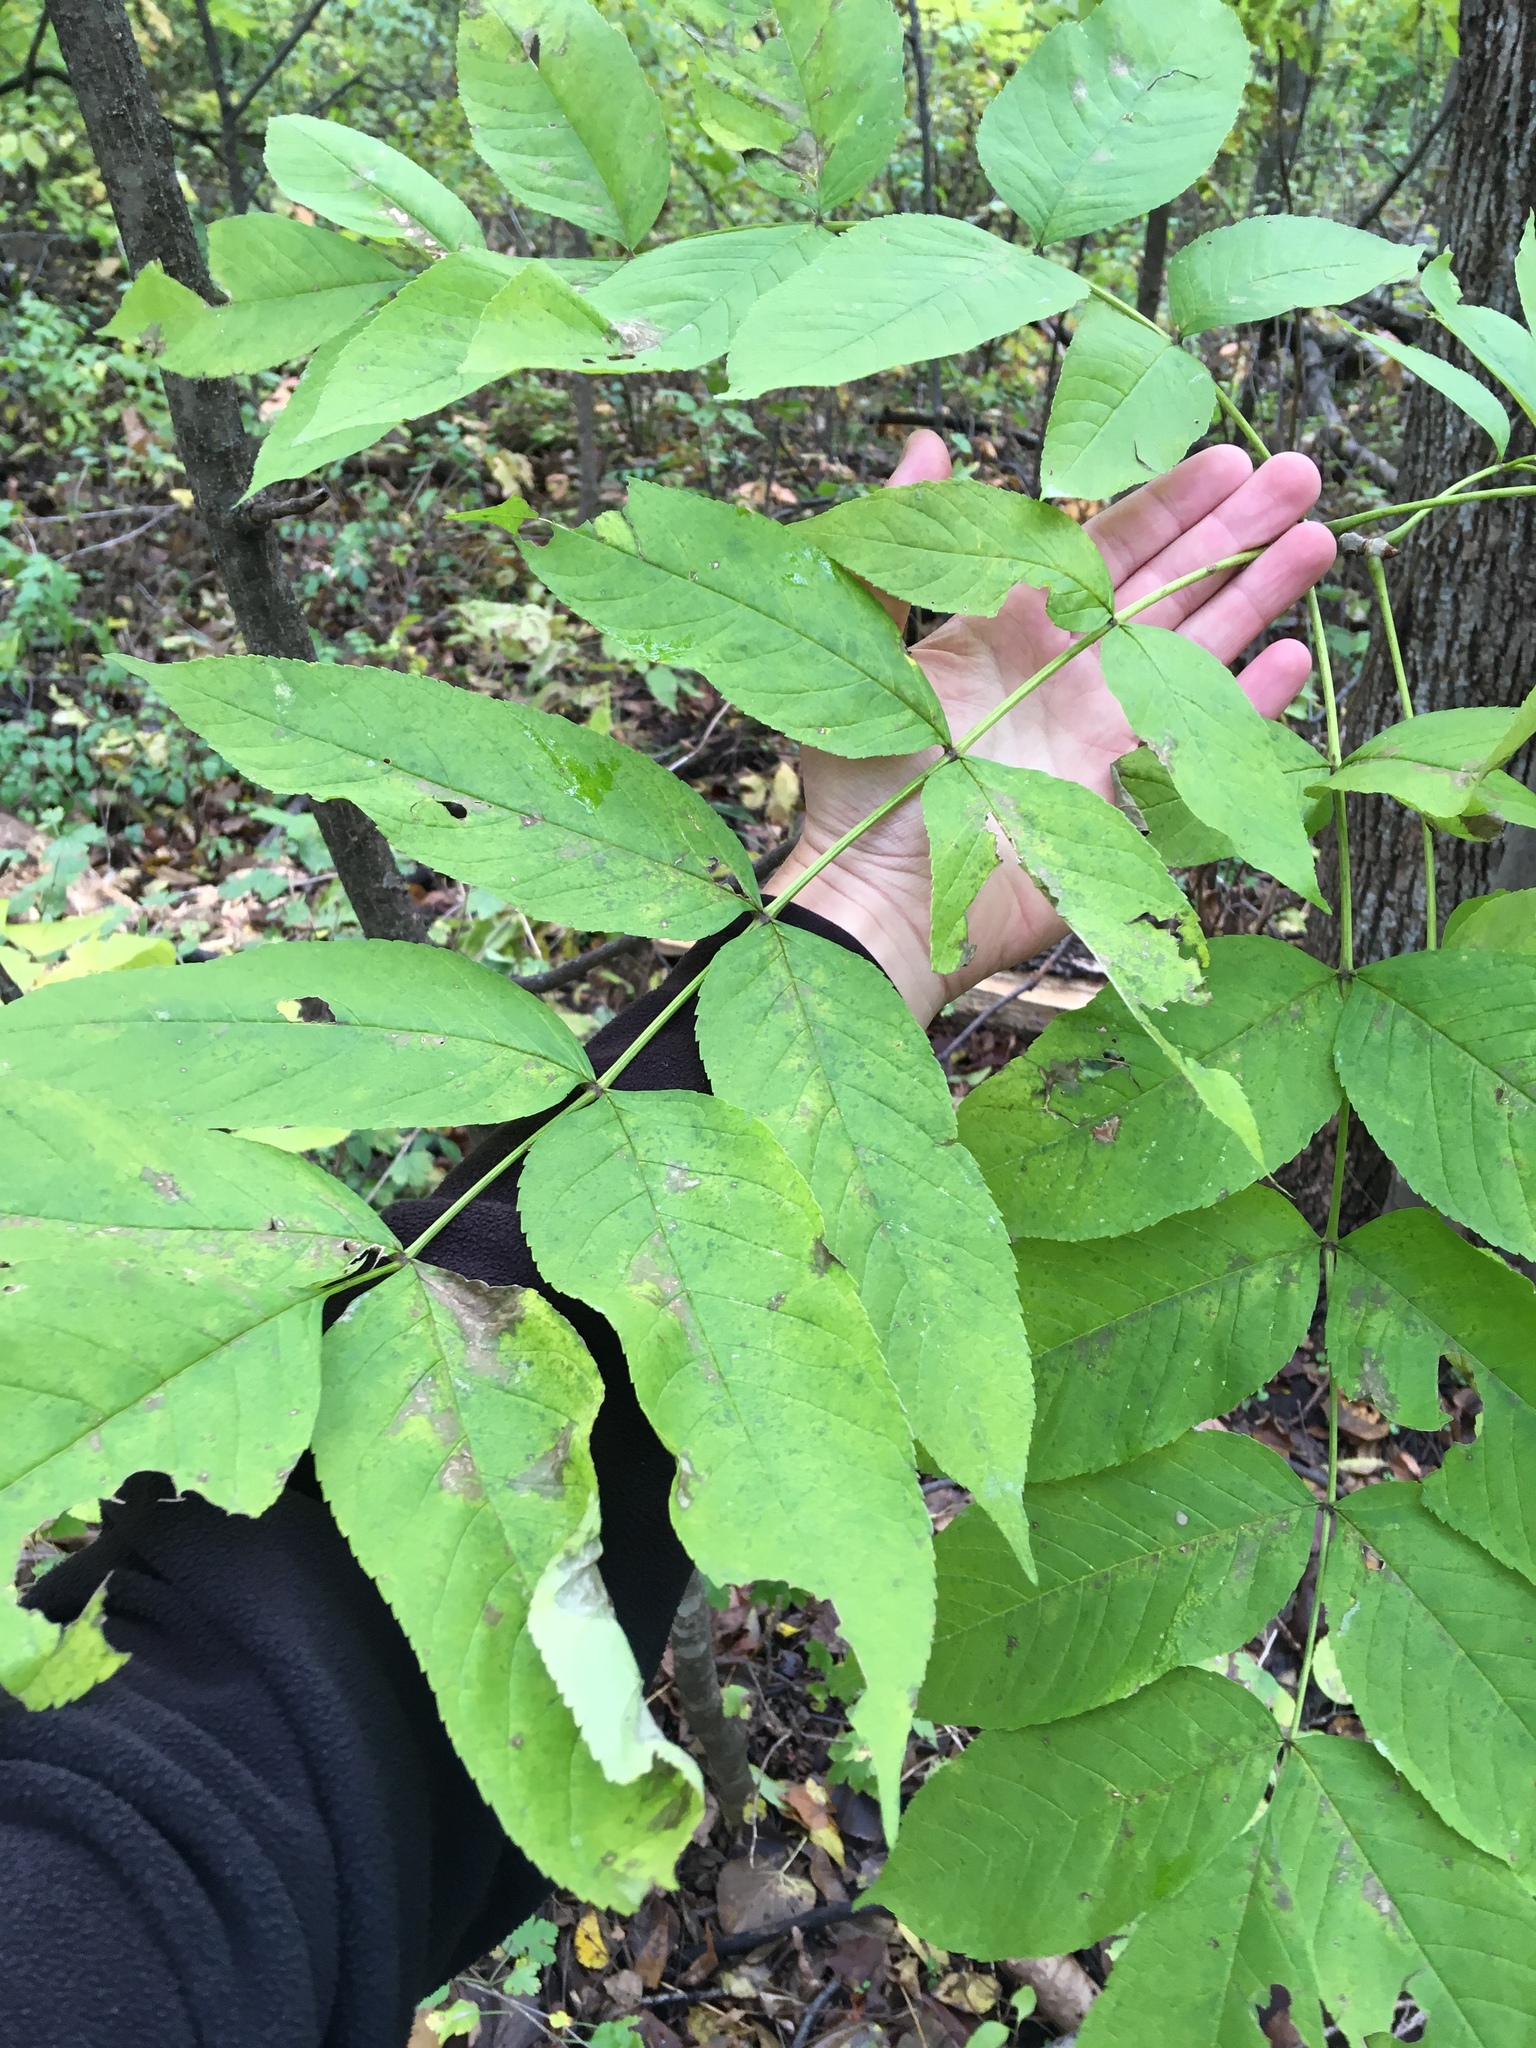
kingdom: Plantae
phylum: Tracheophyta
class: Magnoliopsida
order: Lamiales
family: Oleaceae
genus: Fraxinus
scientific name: Fraxinus nigra
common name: Black ash
